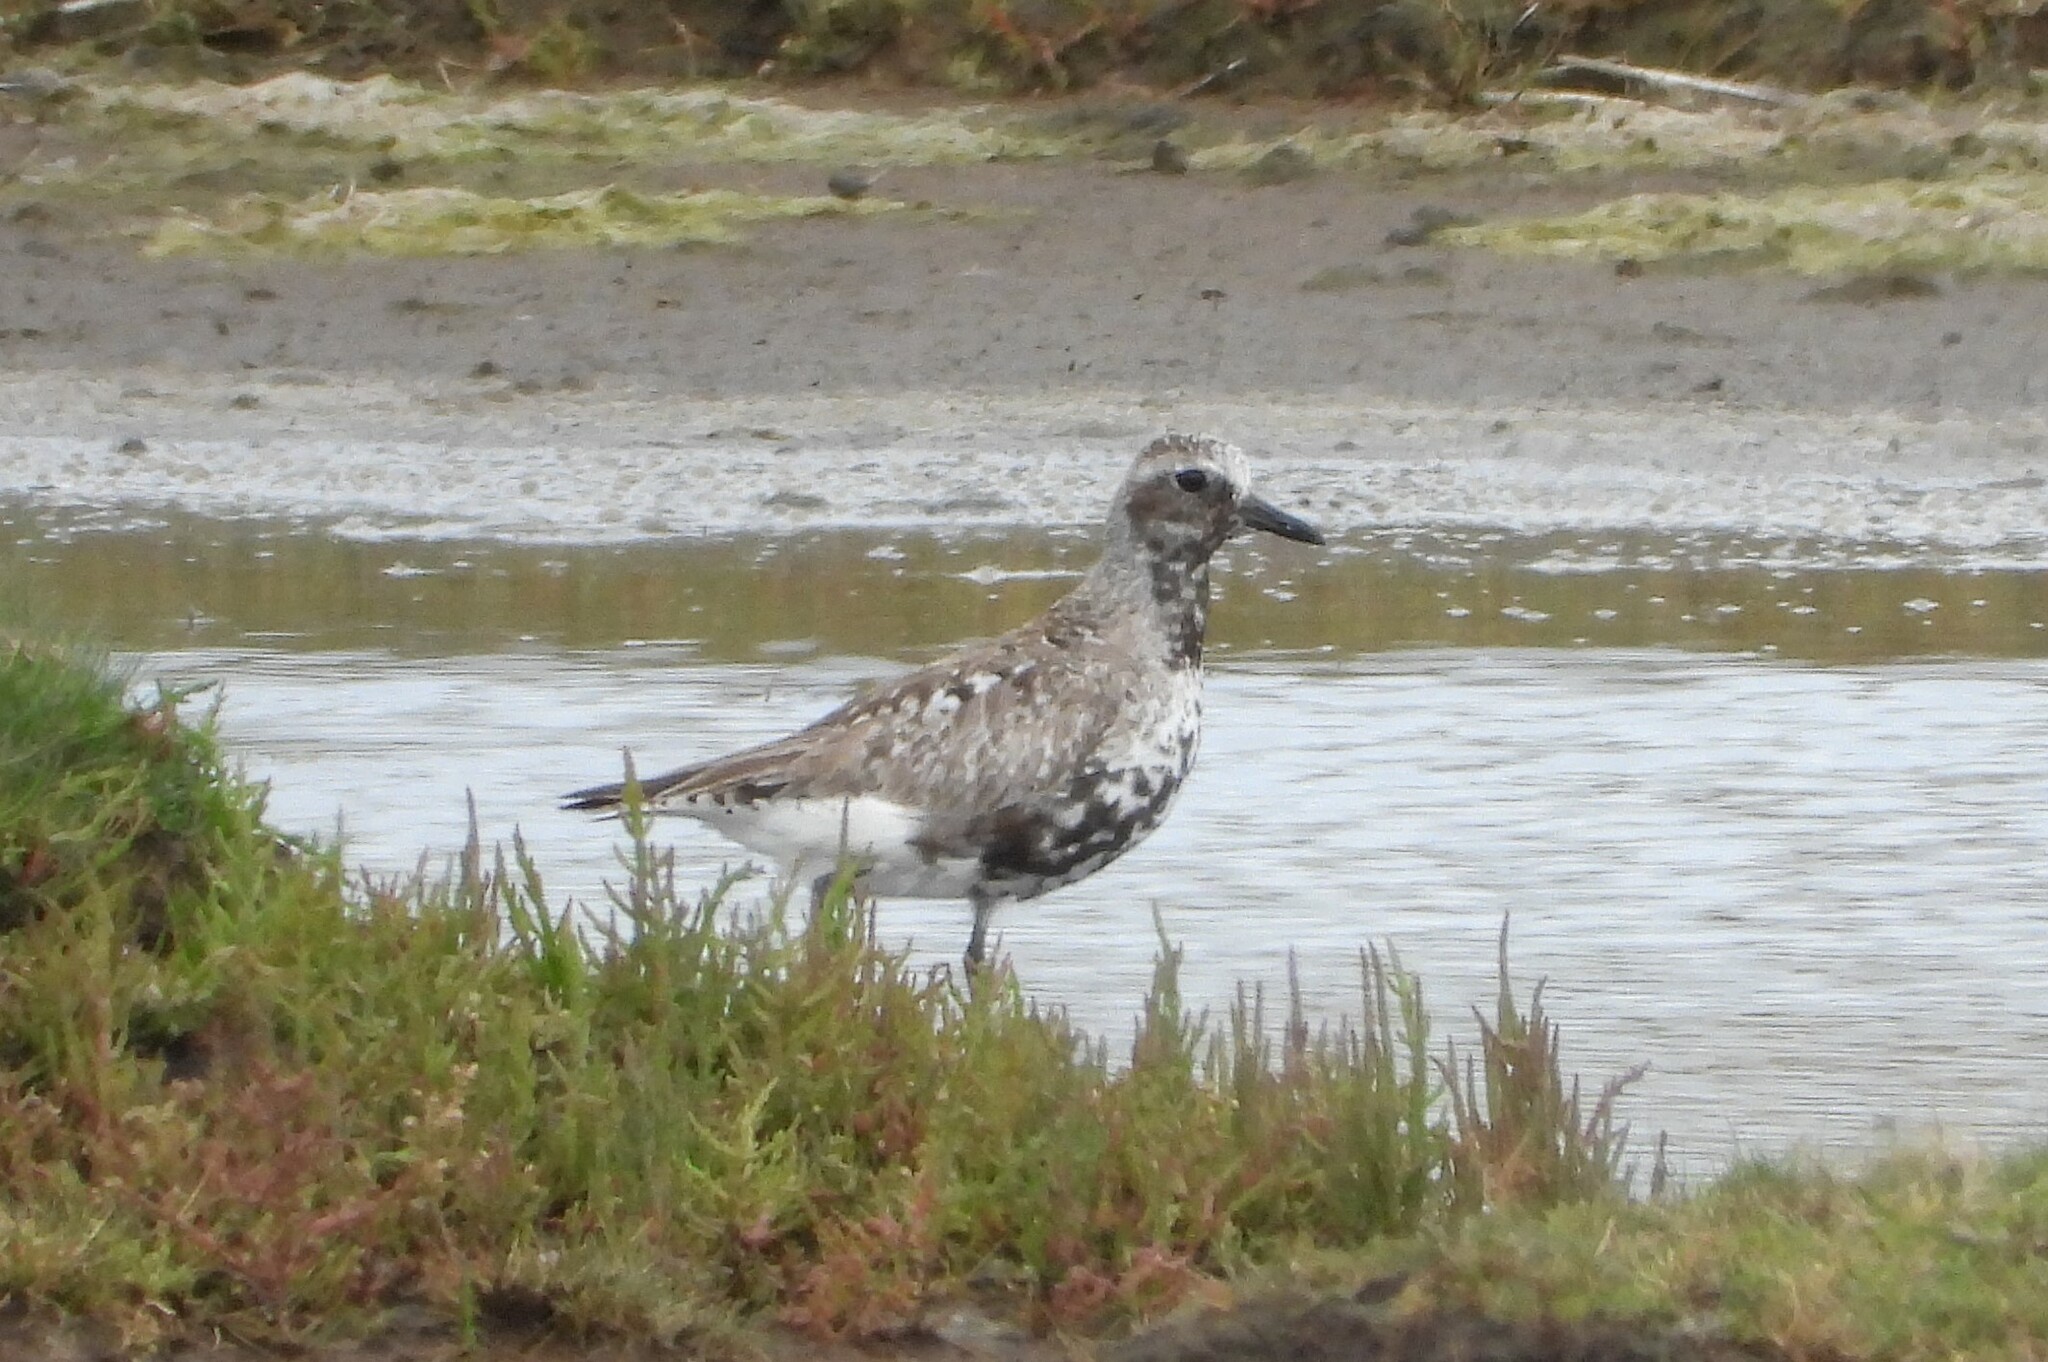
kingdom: Animalia
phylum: Chordata
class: Aves
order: Charadriiformes
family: Charadriidae
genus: Pluvialis
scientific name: Pluvialis squatarola
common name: Grey plover
